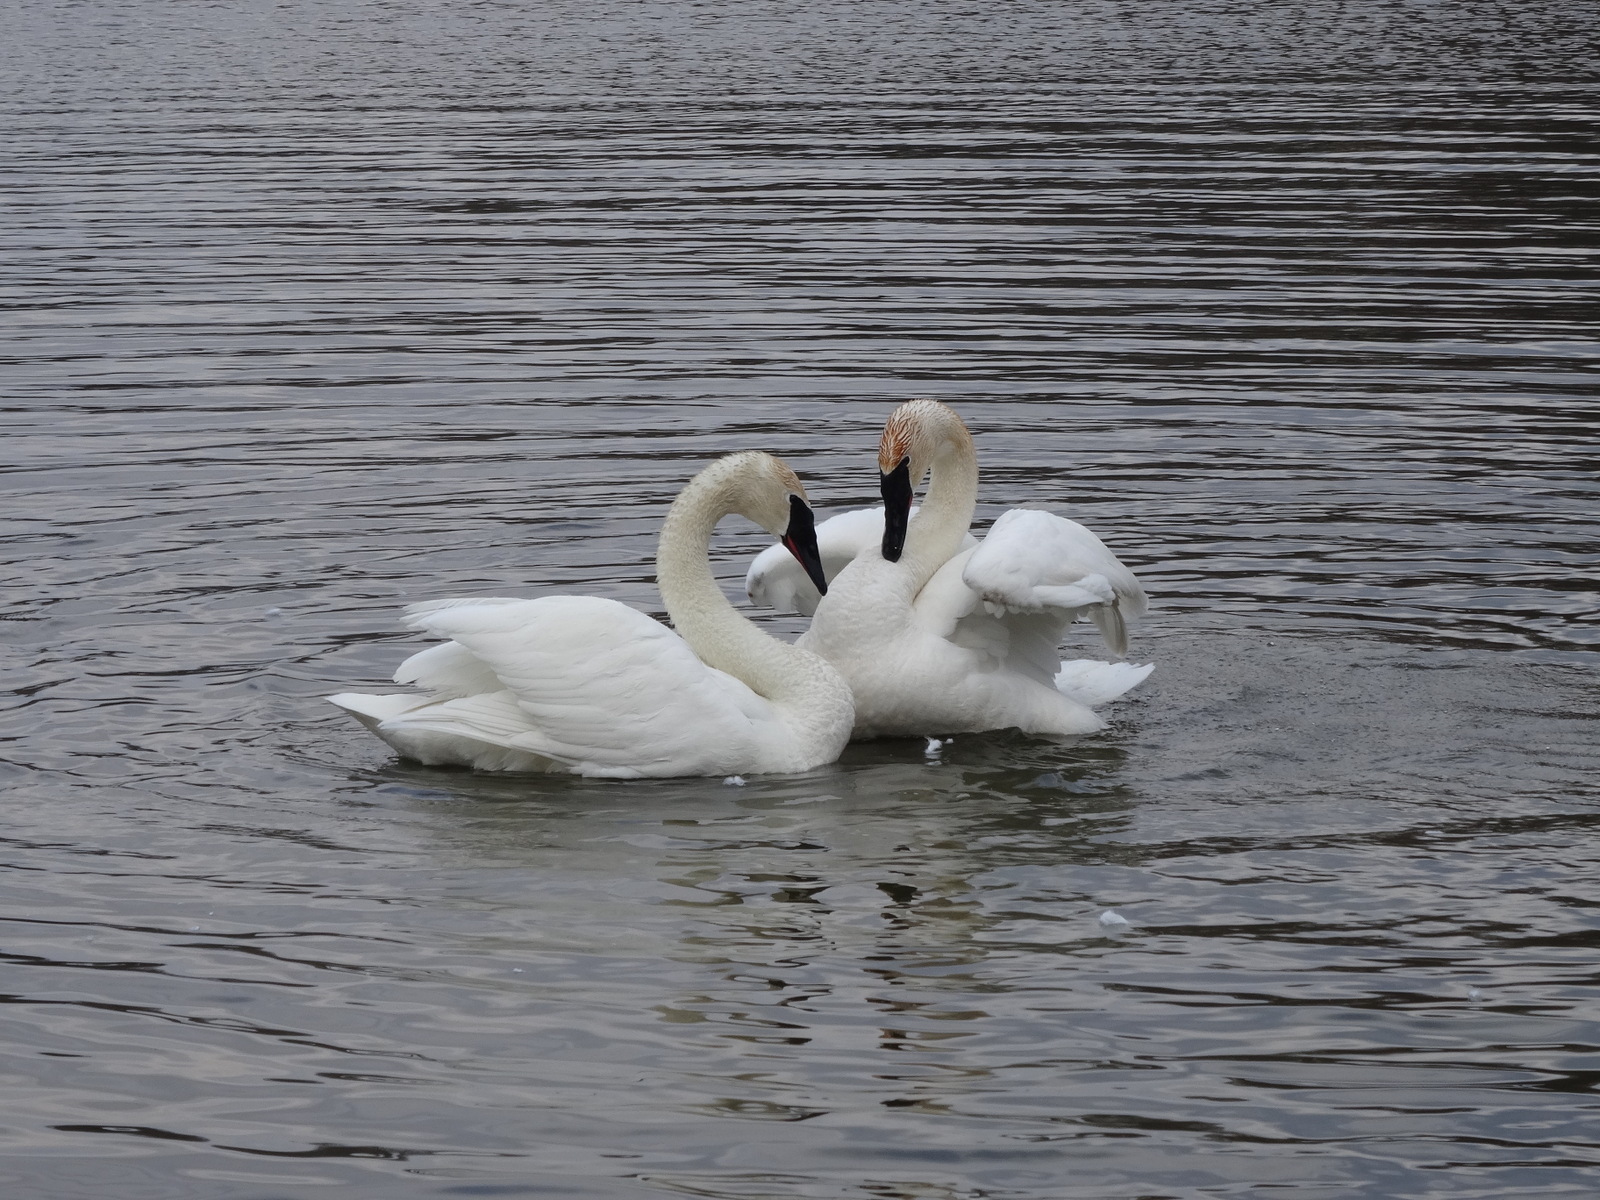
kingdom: Animalia
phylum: Chordata
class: Aves
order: Anseriformes
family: Anatidae
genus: Cygnus
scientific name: Cygnus buccinator
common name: Trumpeter swan
